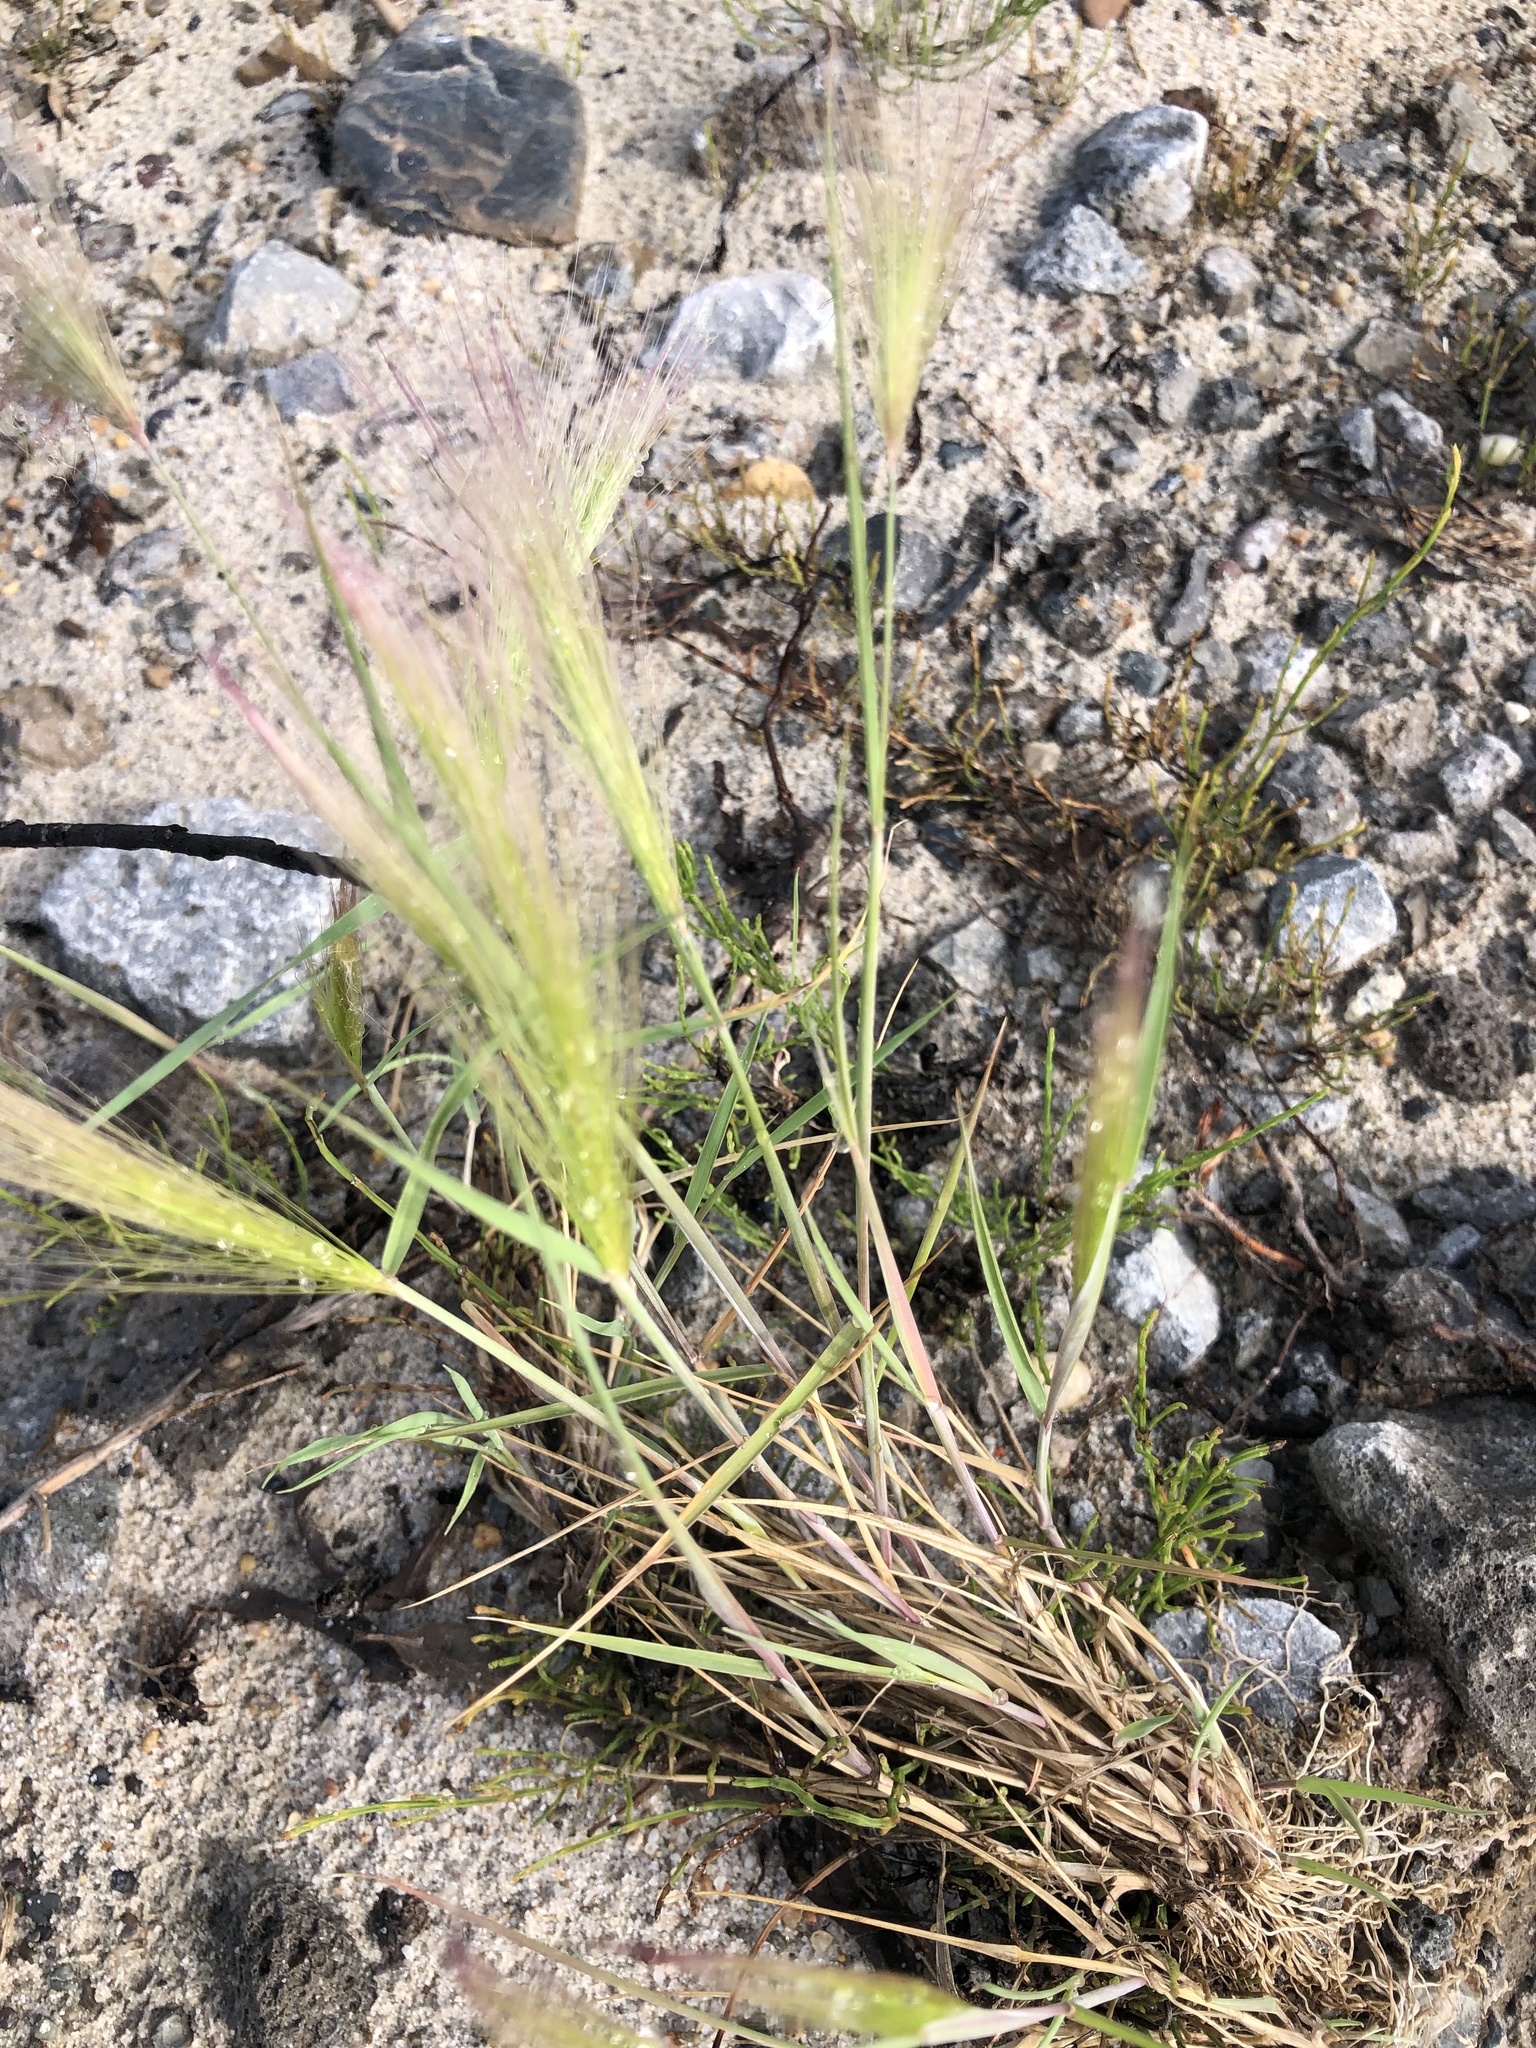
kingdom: Plantae
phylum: Tracheophyta
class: Liliopsida
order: Poales
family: Poaceae
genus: Hordeum
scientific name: Hordeum jubatum
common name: Foxtail barley
